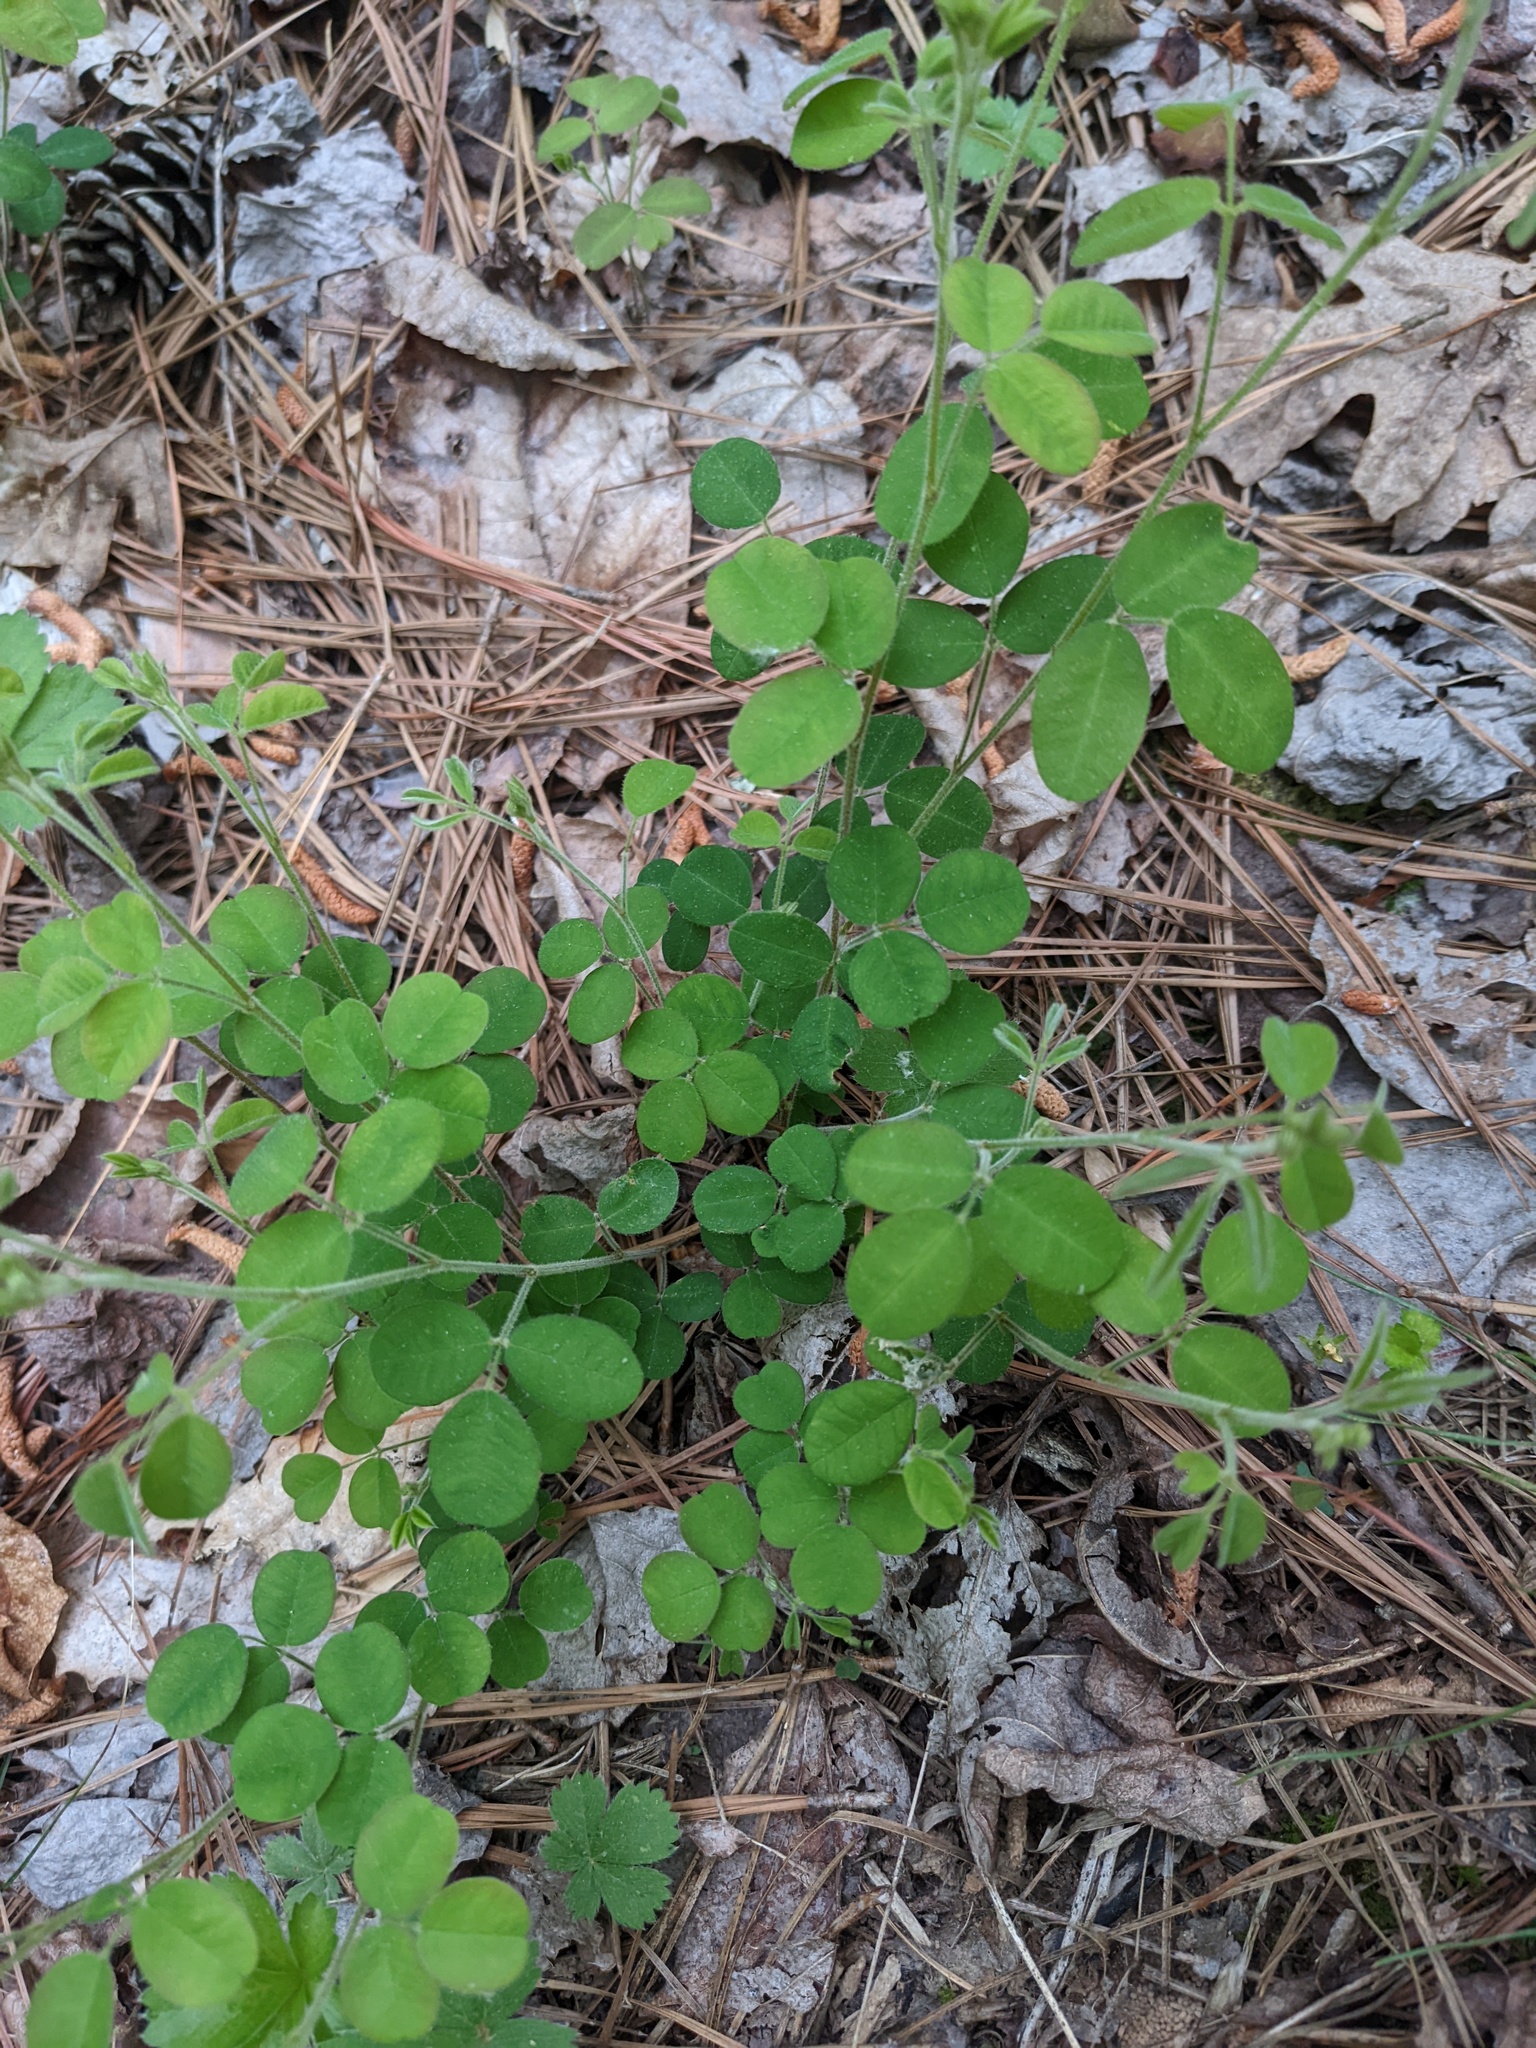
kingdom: Plantae
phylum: Tracheophyta
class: Magnoliopsida
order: Fabales
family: Fabaceae
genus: Lespedeza
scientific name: Lespedeza procumbens
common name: Downy trailing bush-clover
